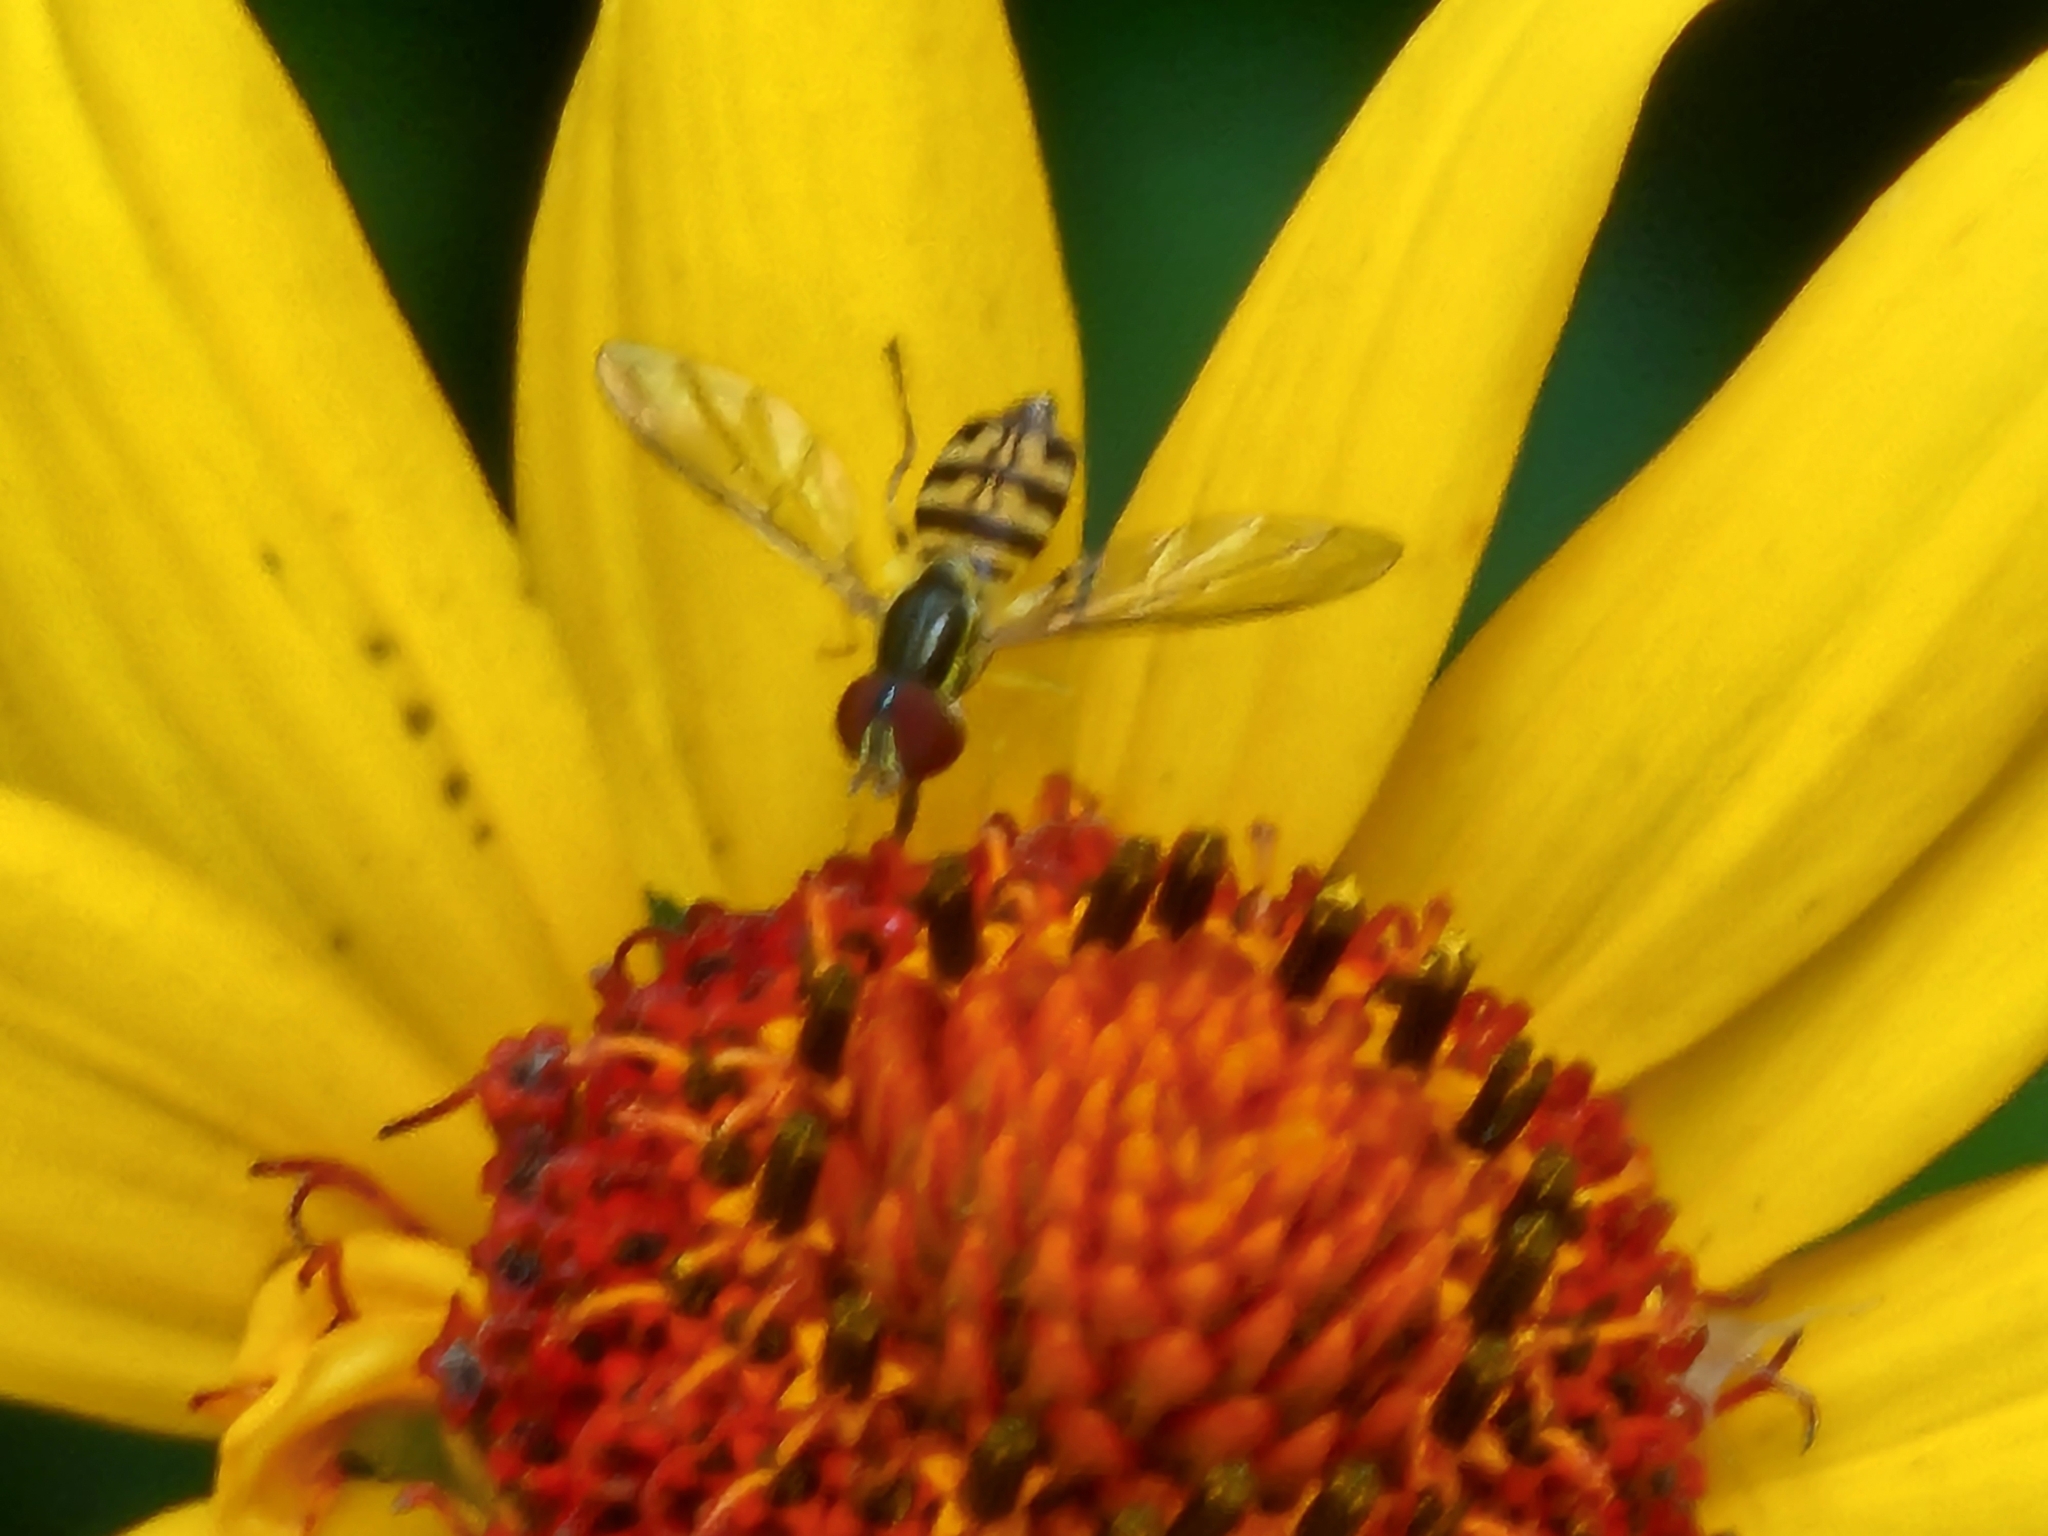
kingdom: Animalia
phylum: Arthropoda
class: Insecta
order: Diptera
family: Syrphidae
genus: Toxomerus
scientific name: Toxomerus geminatus
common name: Eastern calligrapher
